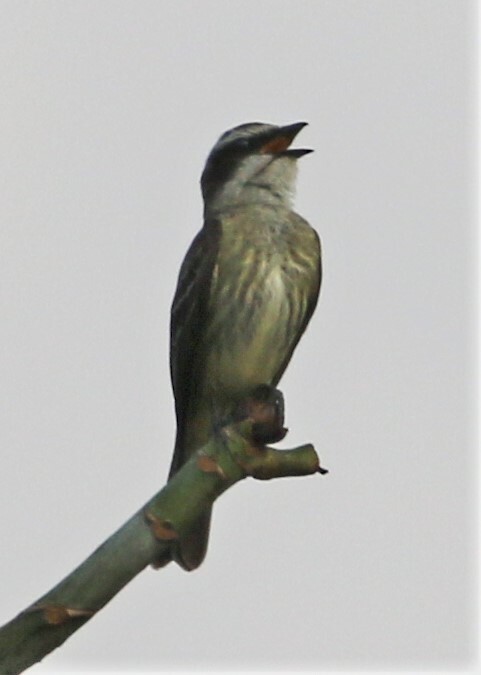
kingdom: Animalia
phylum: Chordata
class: Aves
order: Passeriformes
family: Tyrannidae
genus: Legatus
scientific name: Legatus leucophaius
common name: Piratic flycatcher
